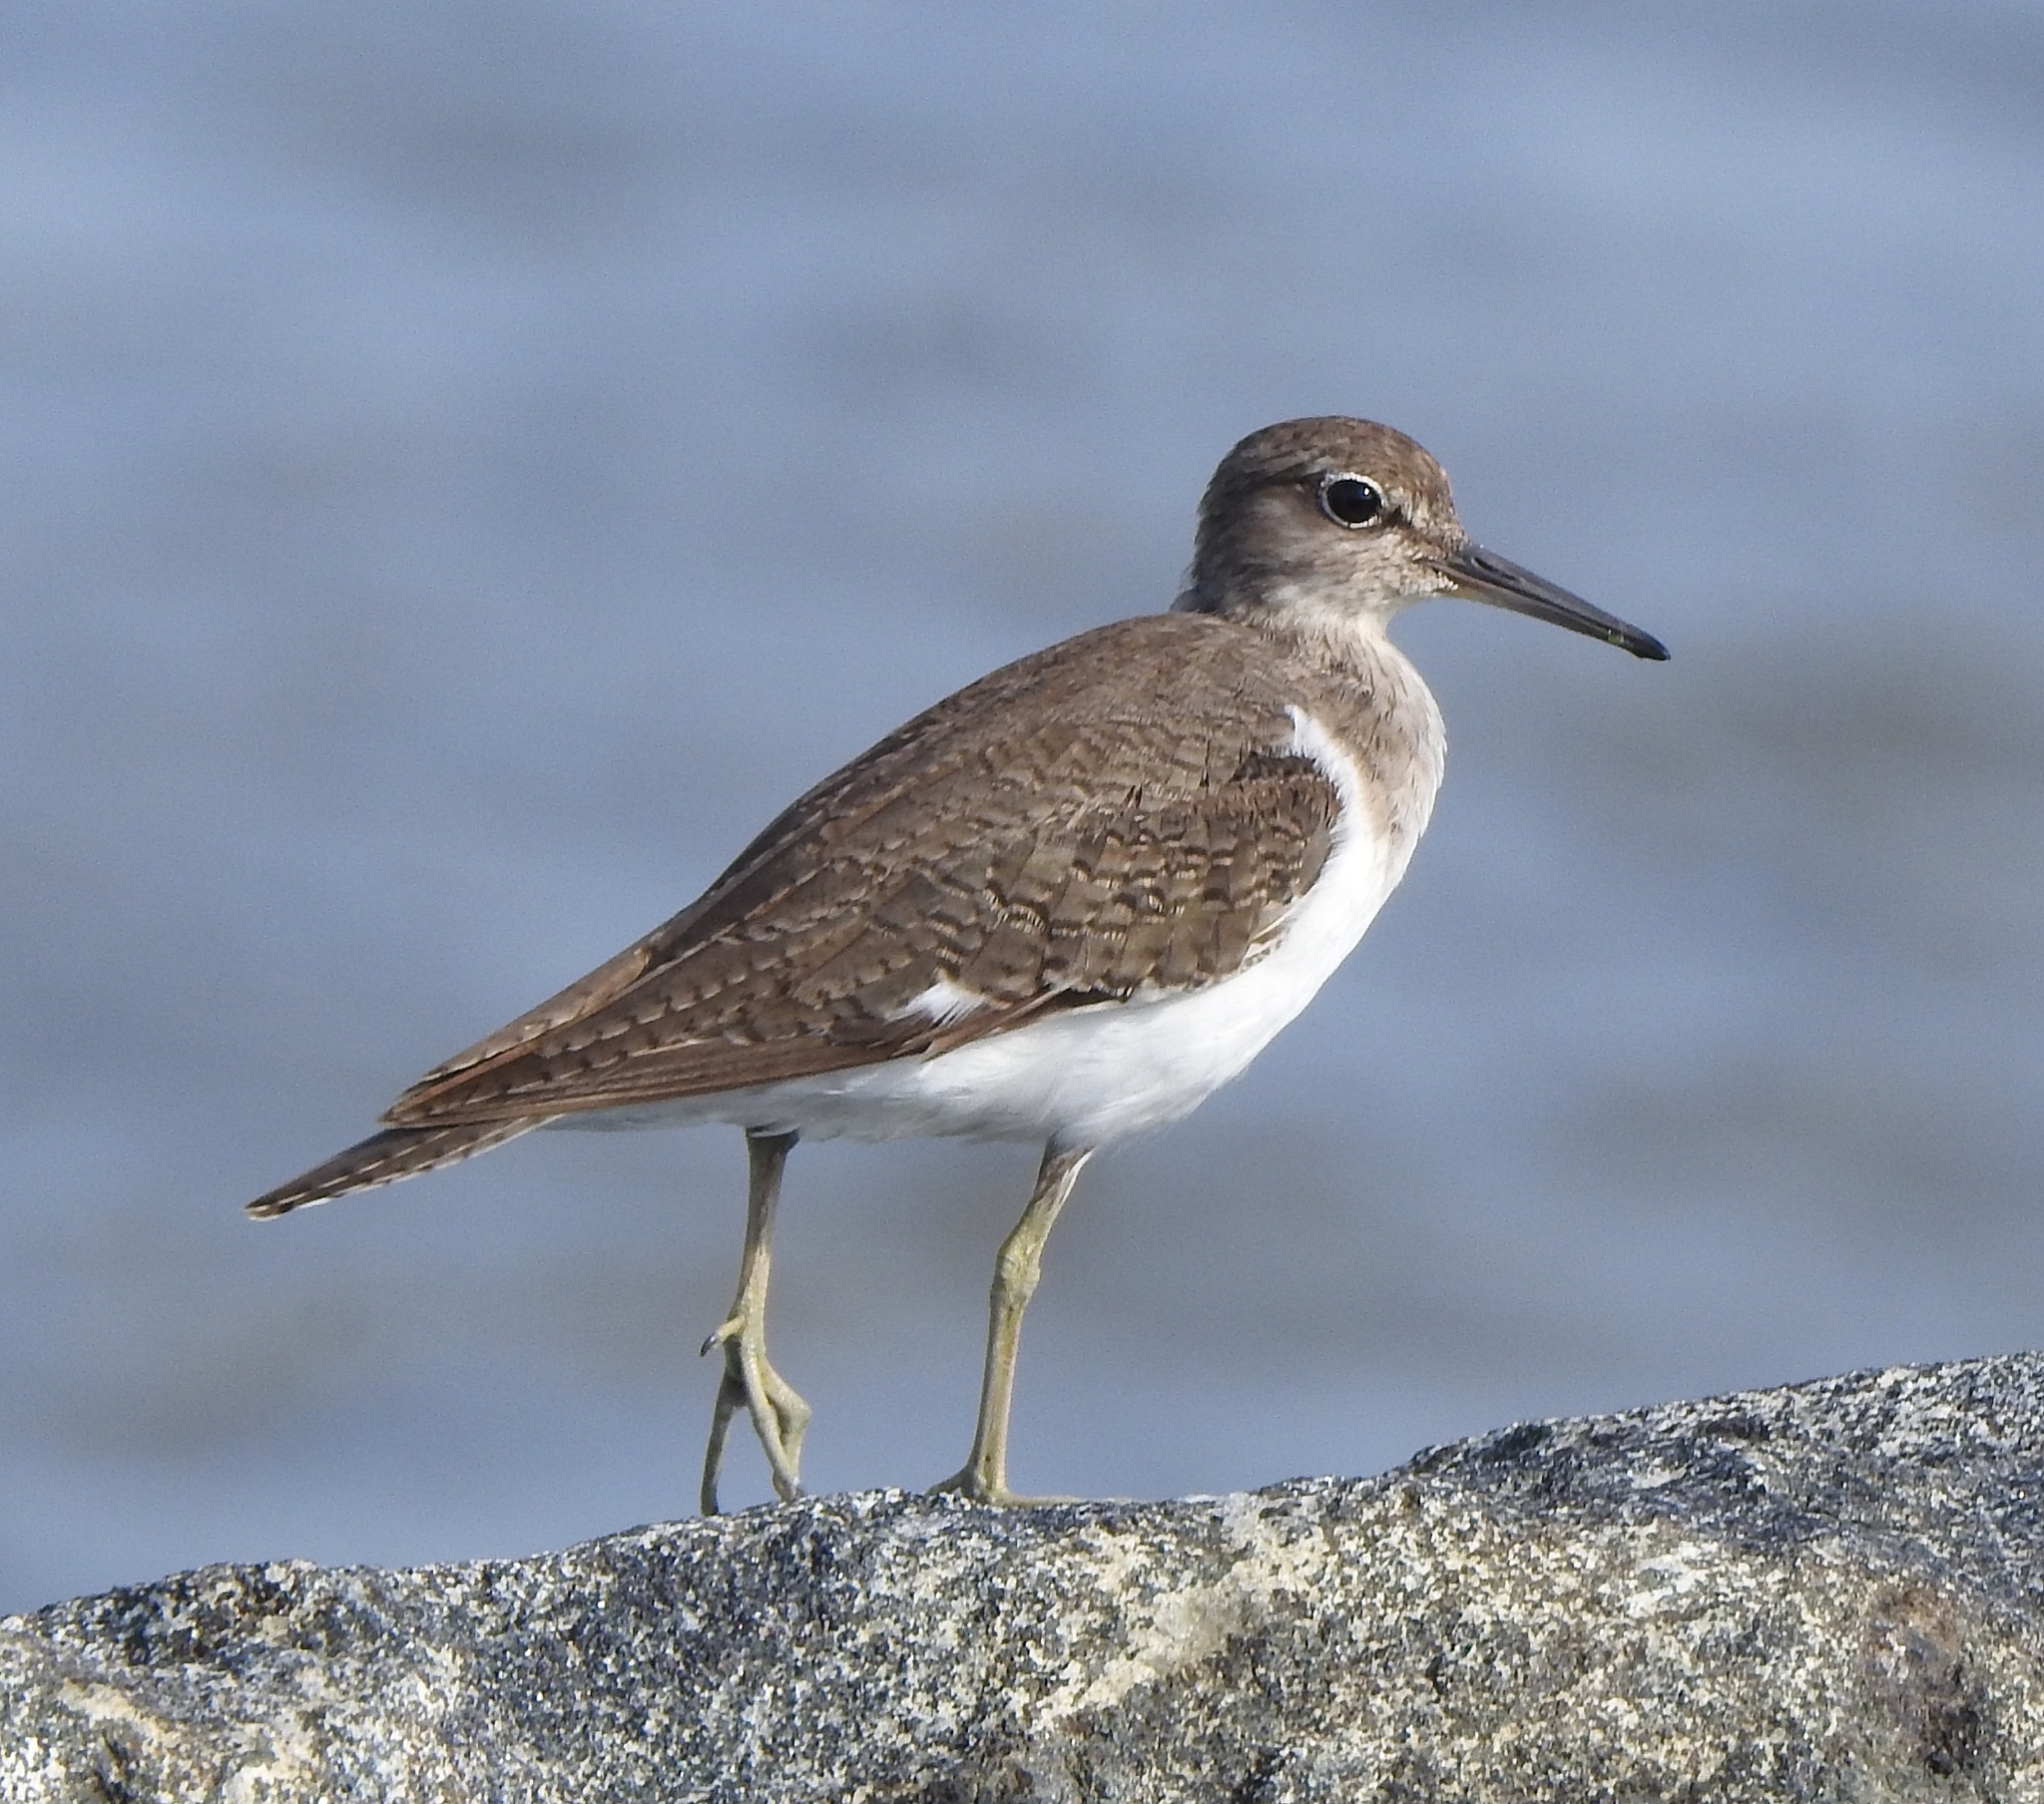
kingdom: Animalia
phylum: Chordata
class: Aves
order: Charadriiformes
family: Scolopacidae
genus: Actitis
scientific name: Actitis hypoleucos
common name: Common sandpiper
